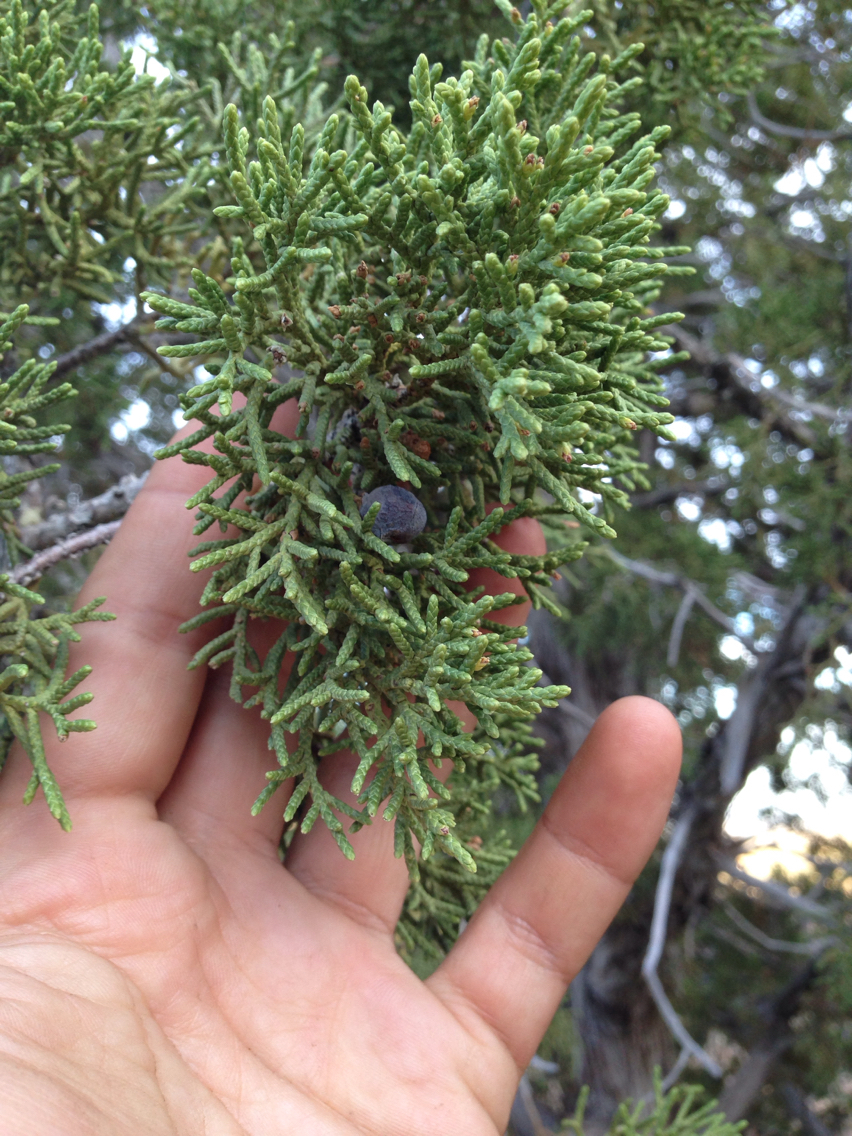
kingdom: Plantae
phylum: Tracheophyta
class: Pinopsida
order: Pinales
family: Cupressaceae
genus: Juniperus
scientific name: Juniperus californica
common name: California juniper
